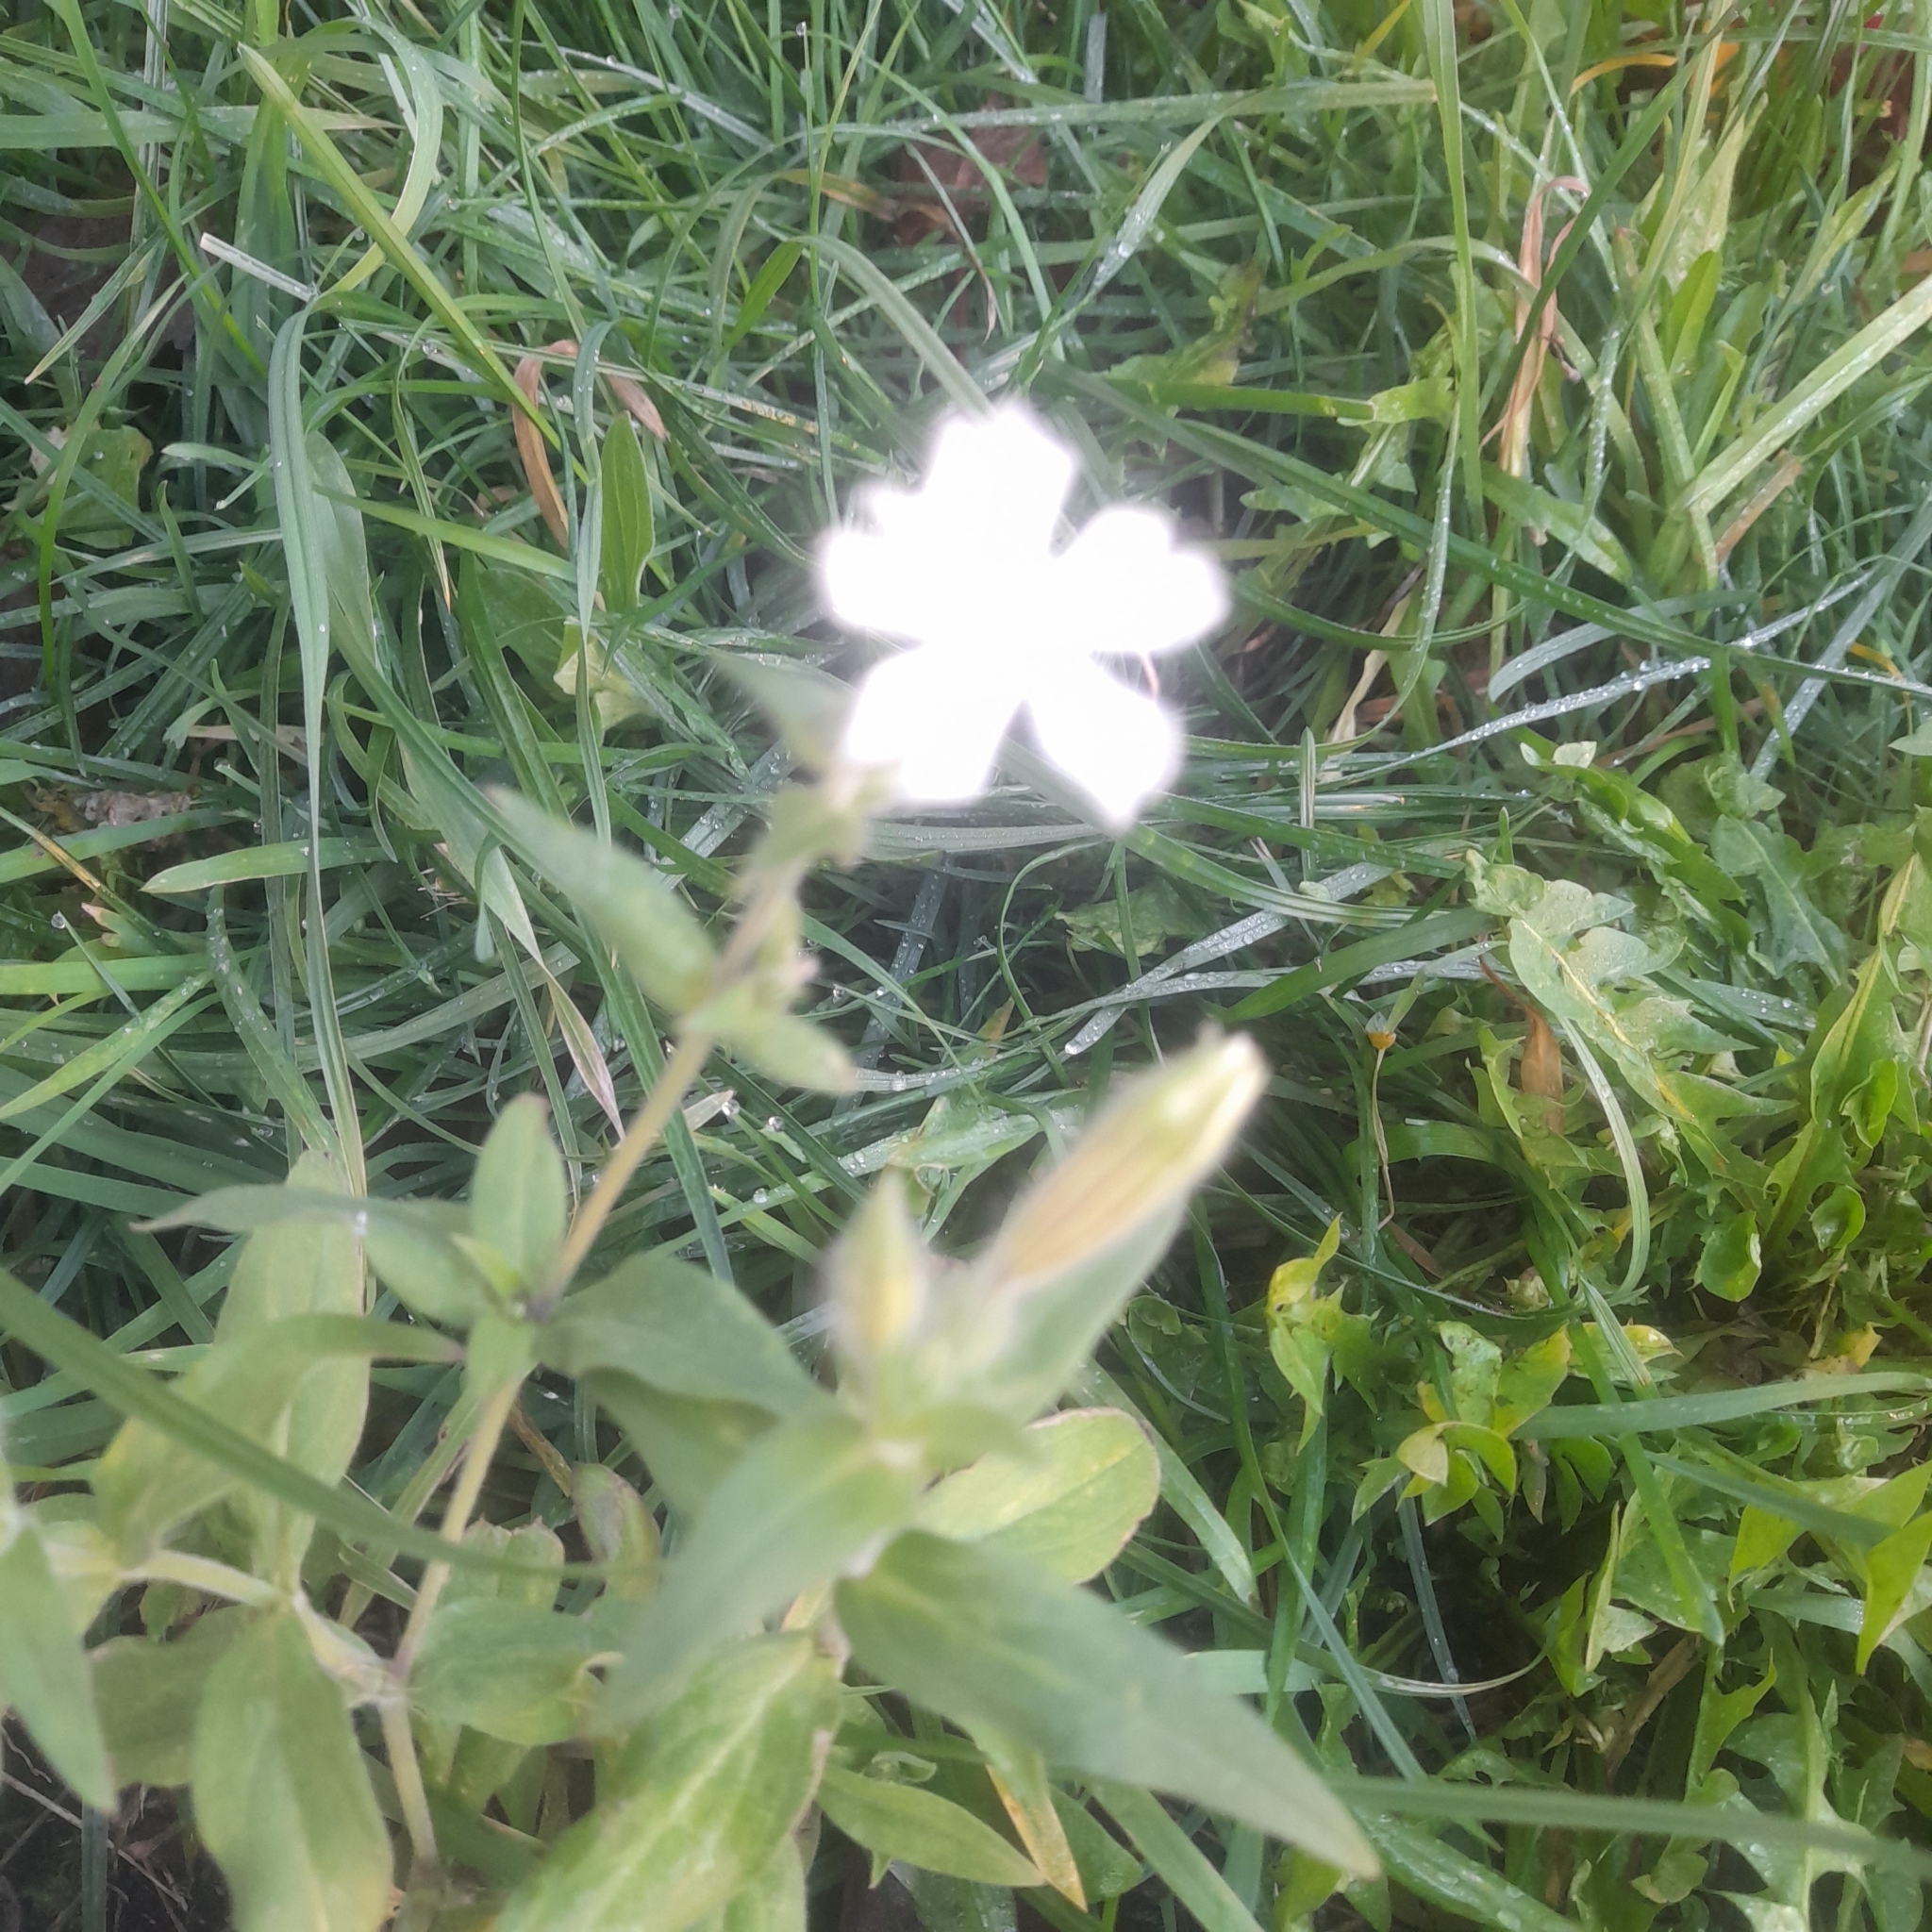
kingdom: Plantae
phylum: Tracheophyta
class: Magnoliopsida
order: Caryophyllales
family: Caryophyllaceae
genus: Silene
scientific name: Silene latifolia
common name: White campion
